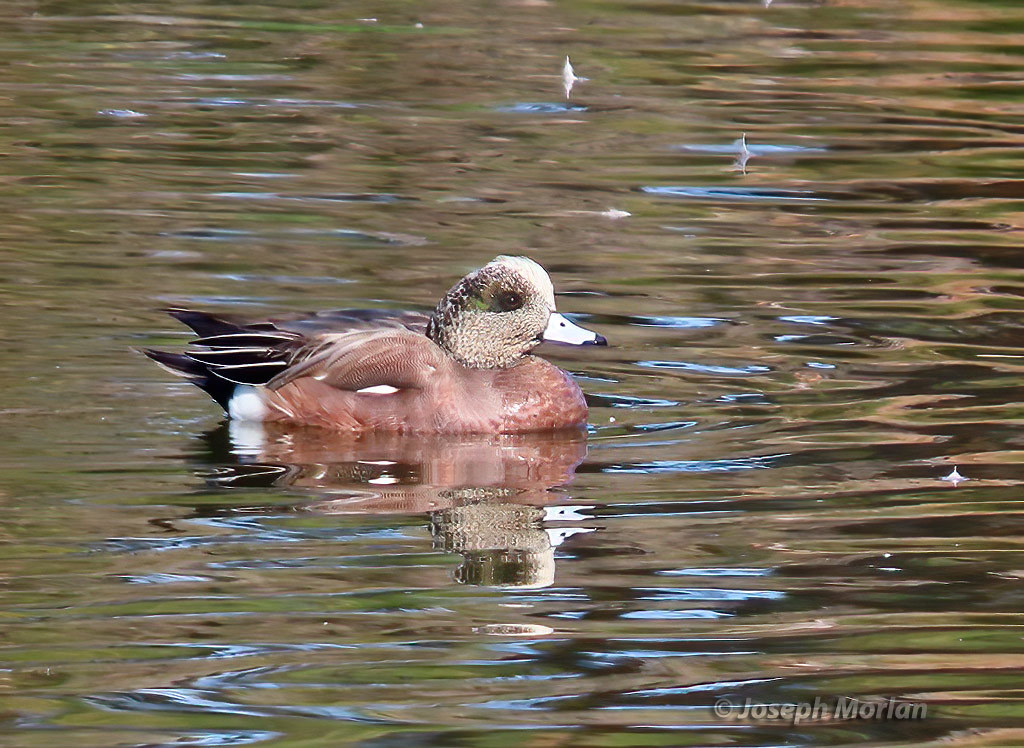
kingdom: Animalia
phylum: Chordata
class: Aves
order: Anseriformes
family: Anatidae
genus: Mareca
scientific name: Mareca americana
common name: American wigeon
